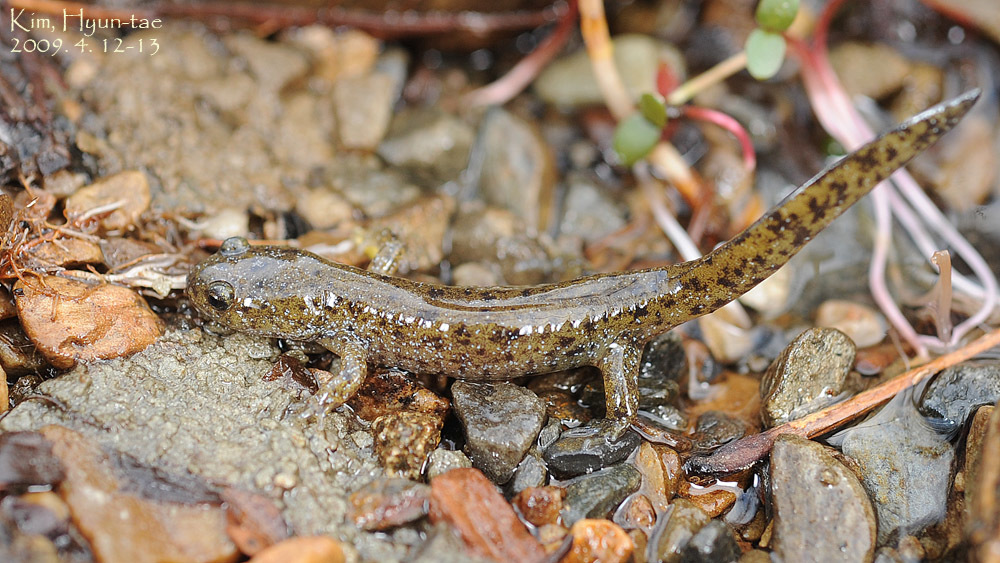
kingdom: Animalia
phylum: Chordata
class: Amphibia
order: Caudata
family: Hynobiidae
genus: Hynobius
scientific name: Hynobius leechii
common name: Gensan salamander
